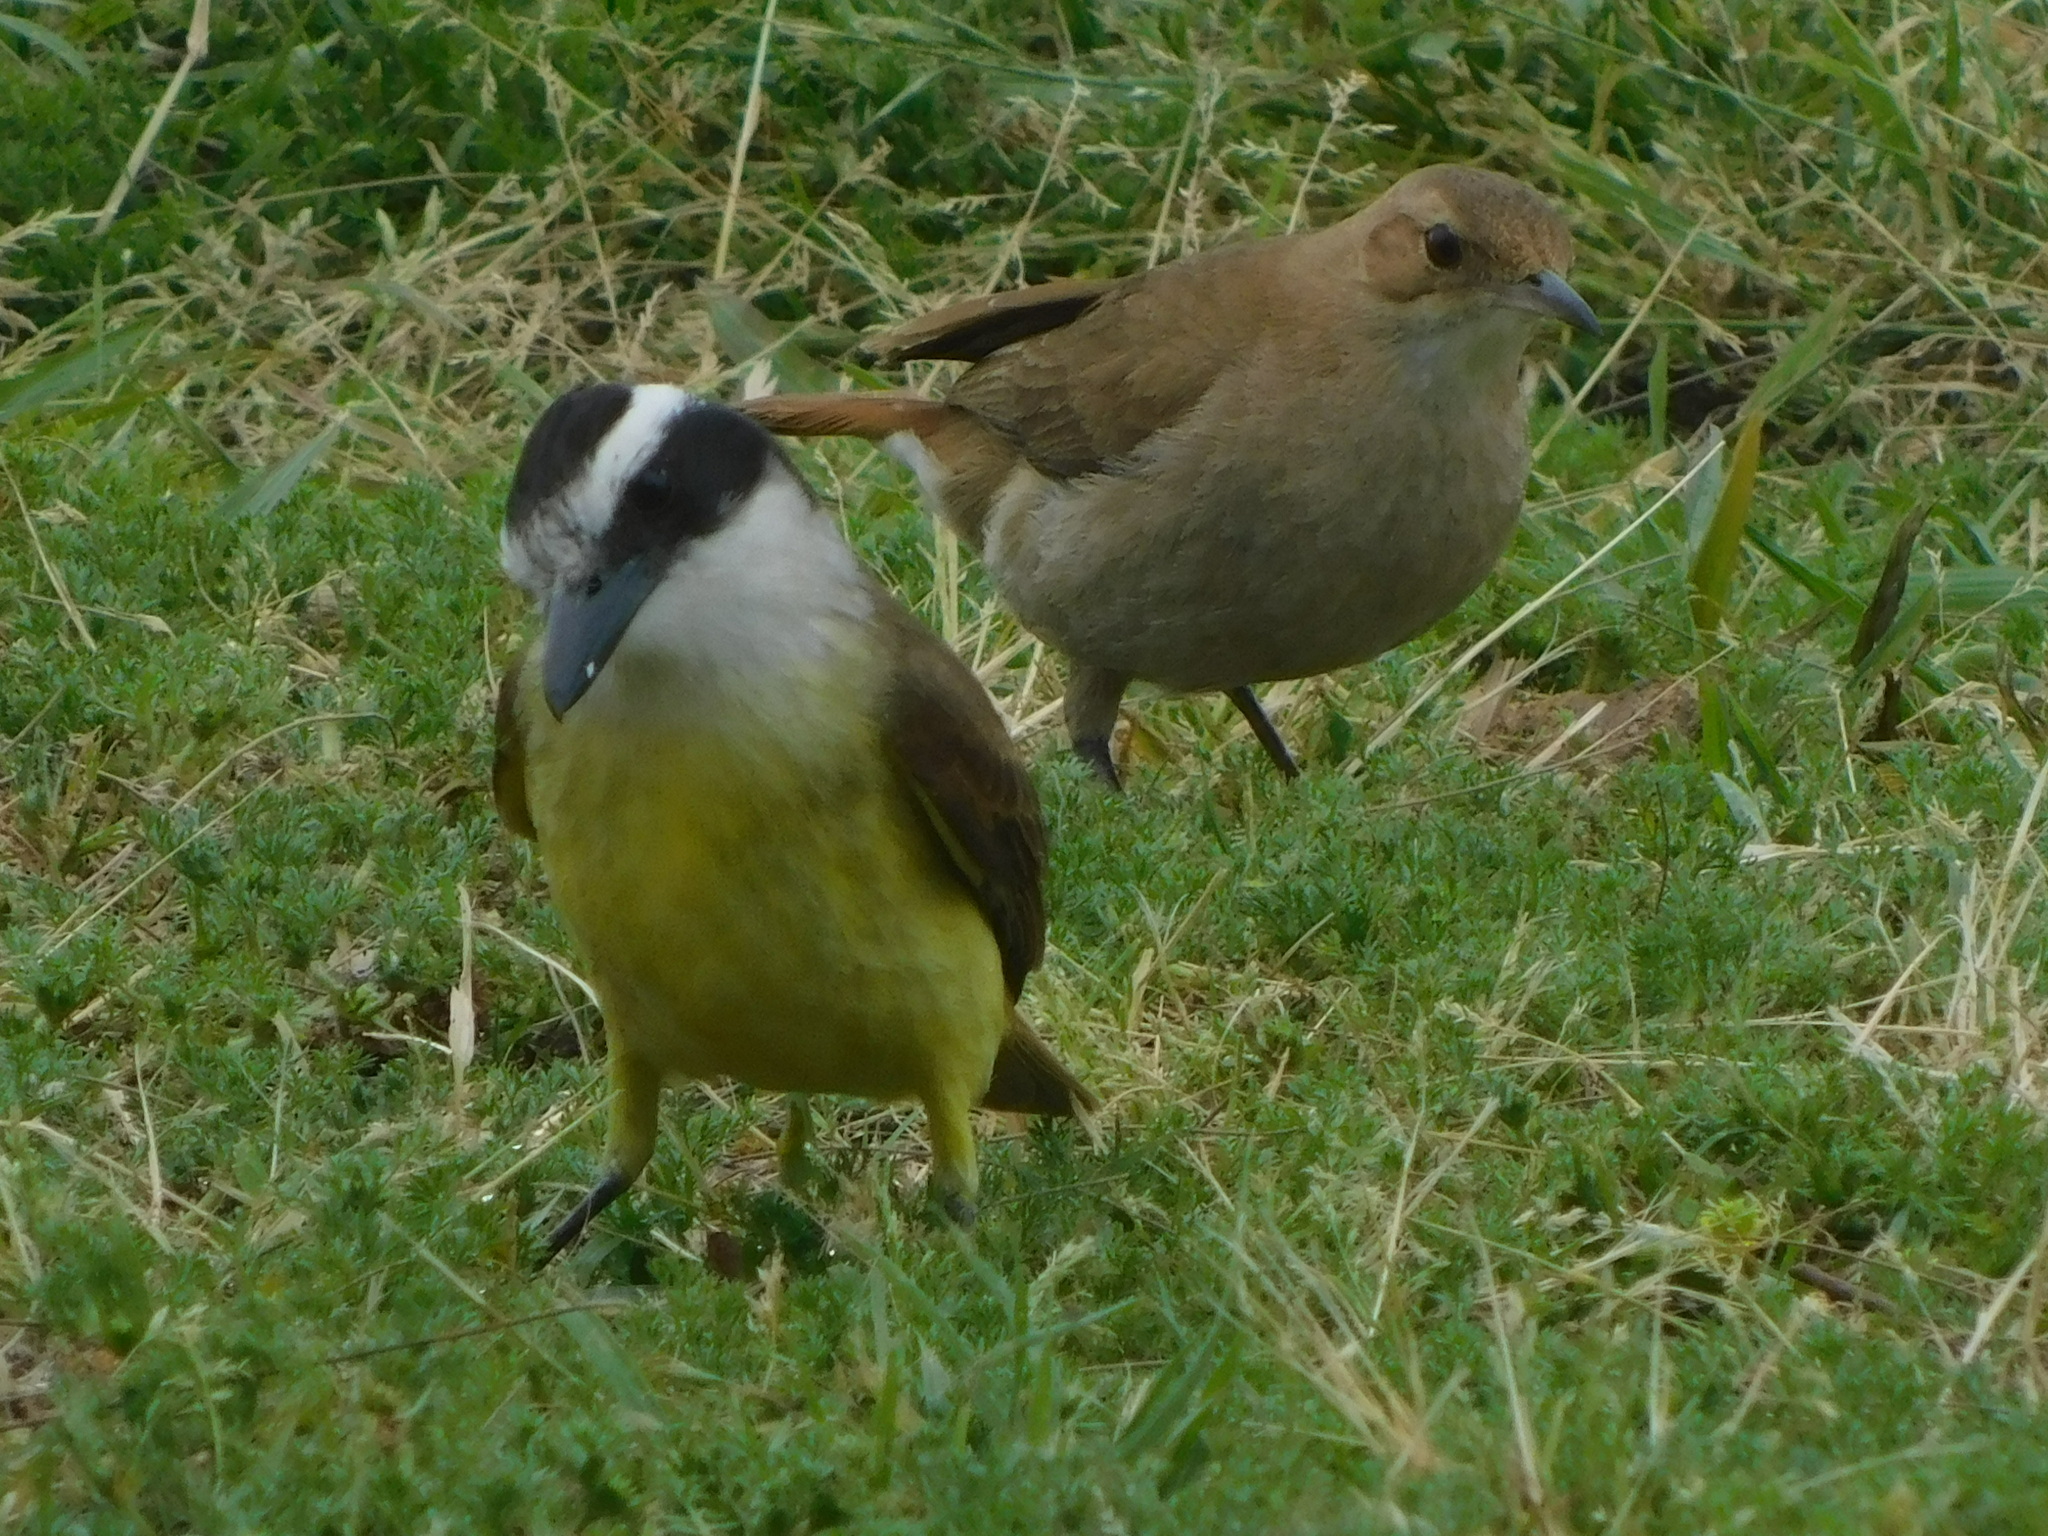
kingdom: Animalia
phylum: Chordata
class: Aves
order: Passeriformes
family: Tyrannidae
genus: Pitangus
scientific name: Pitangus sulphuratus
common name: Great kiskadee
